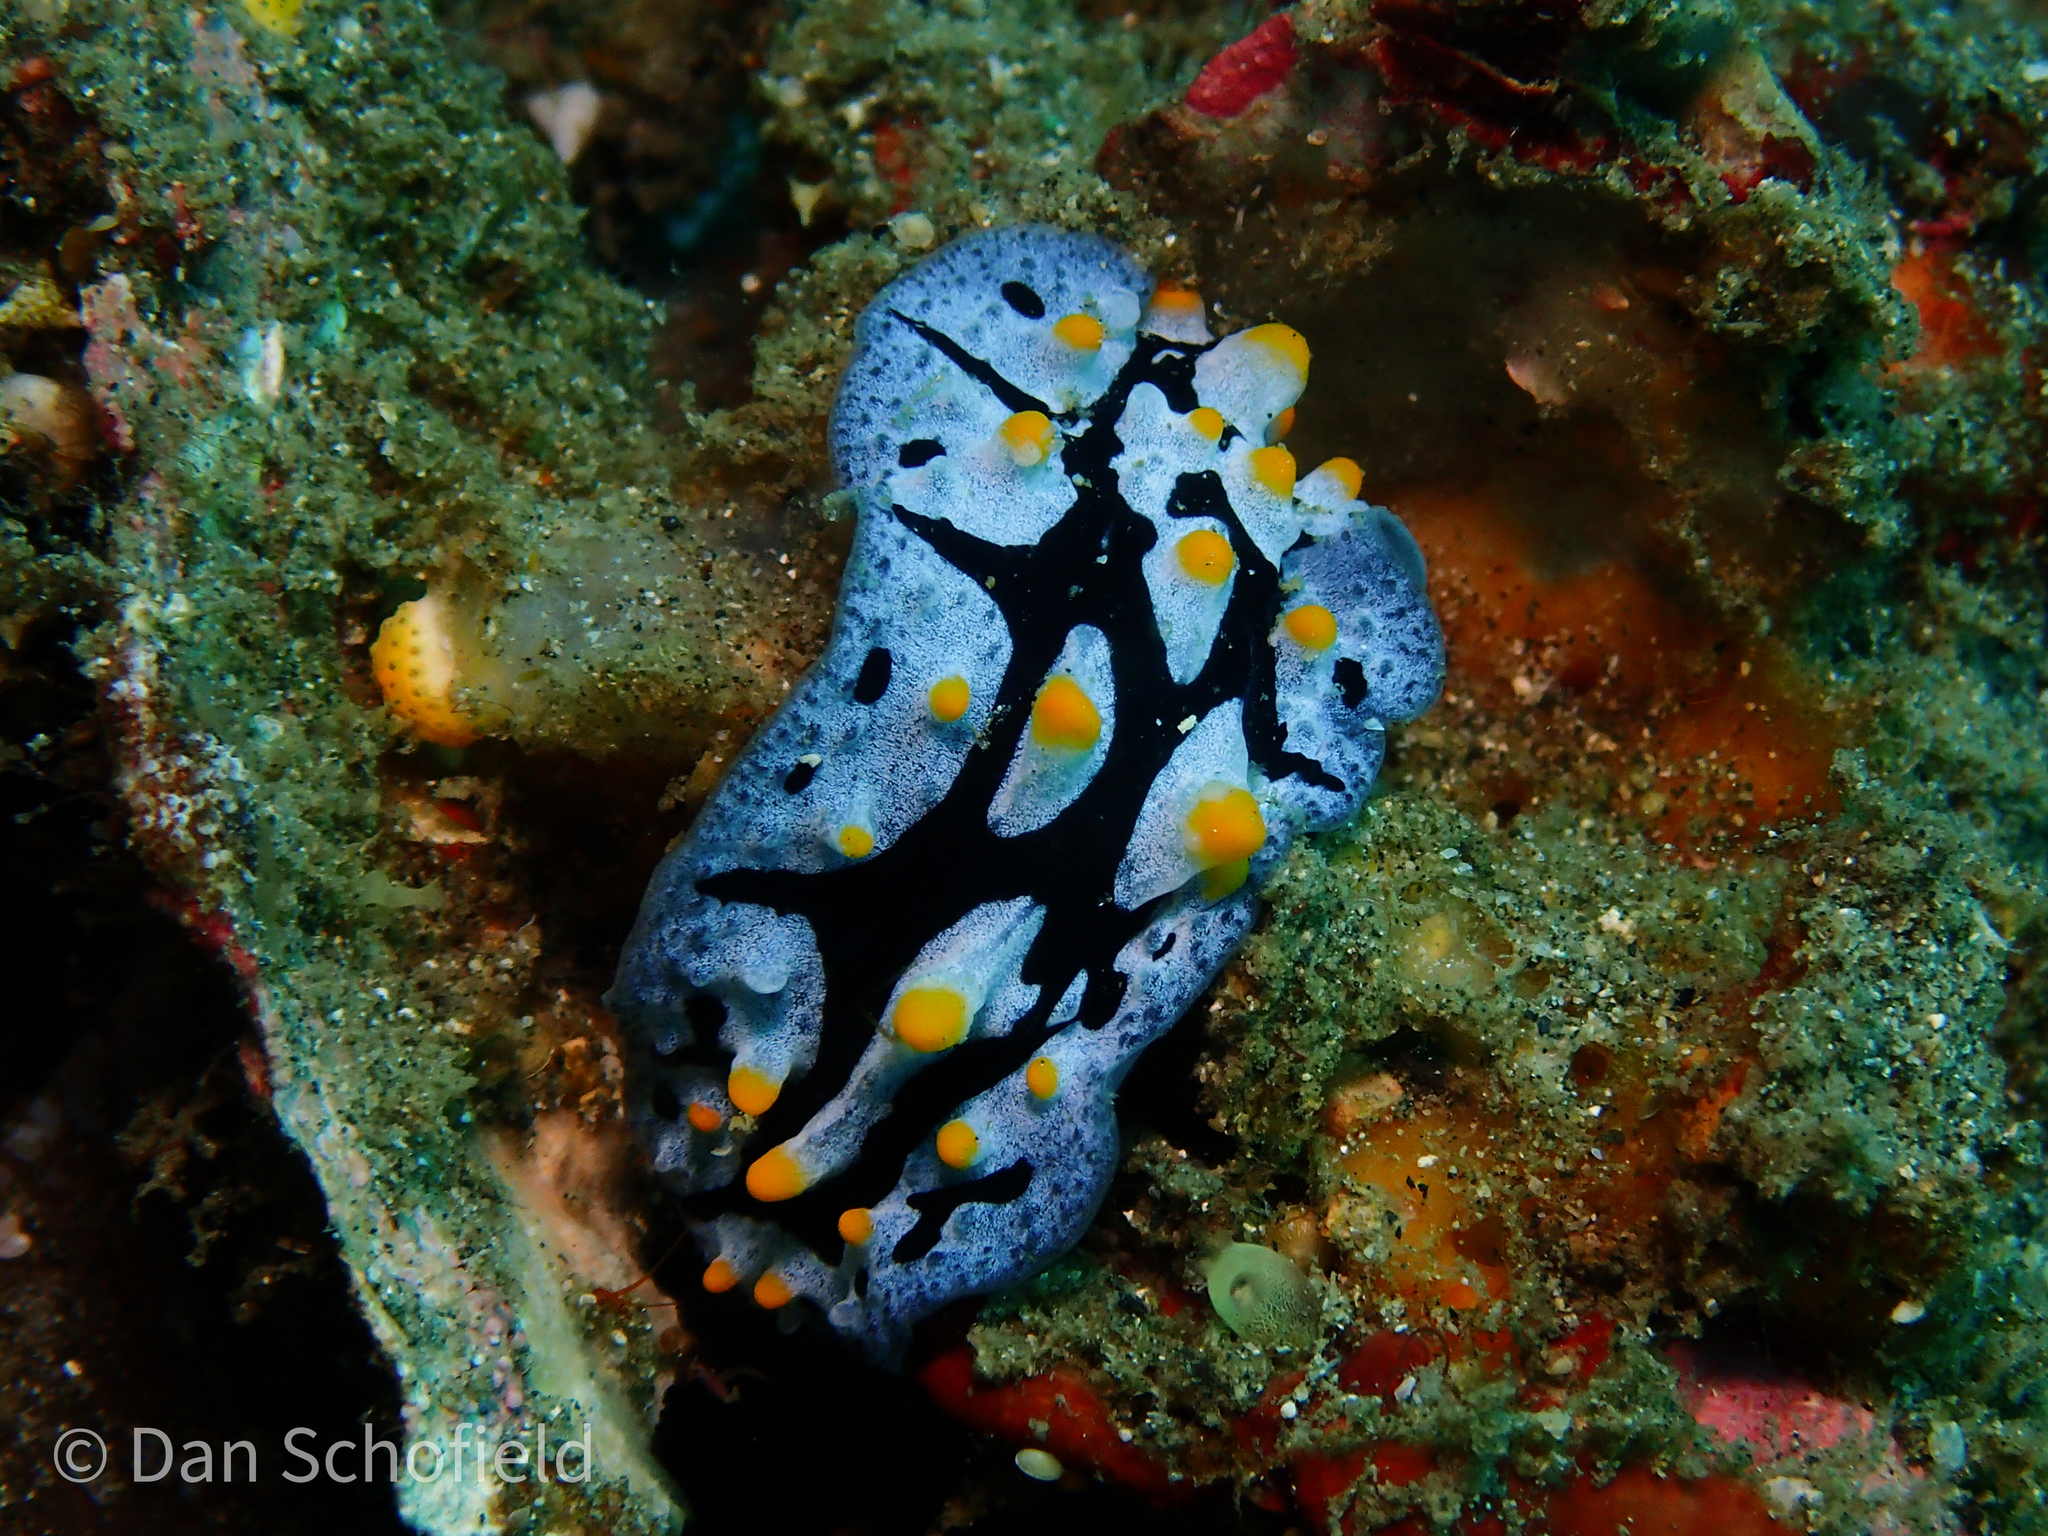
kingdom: Animalia
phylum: Mollusca
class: Gastropoda
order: Nudibranchia
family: Phyllidiidae
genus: Phyllidia
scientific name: Phyllidia picta
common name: Black-rayed phyllidia
